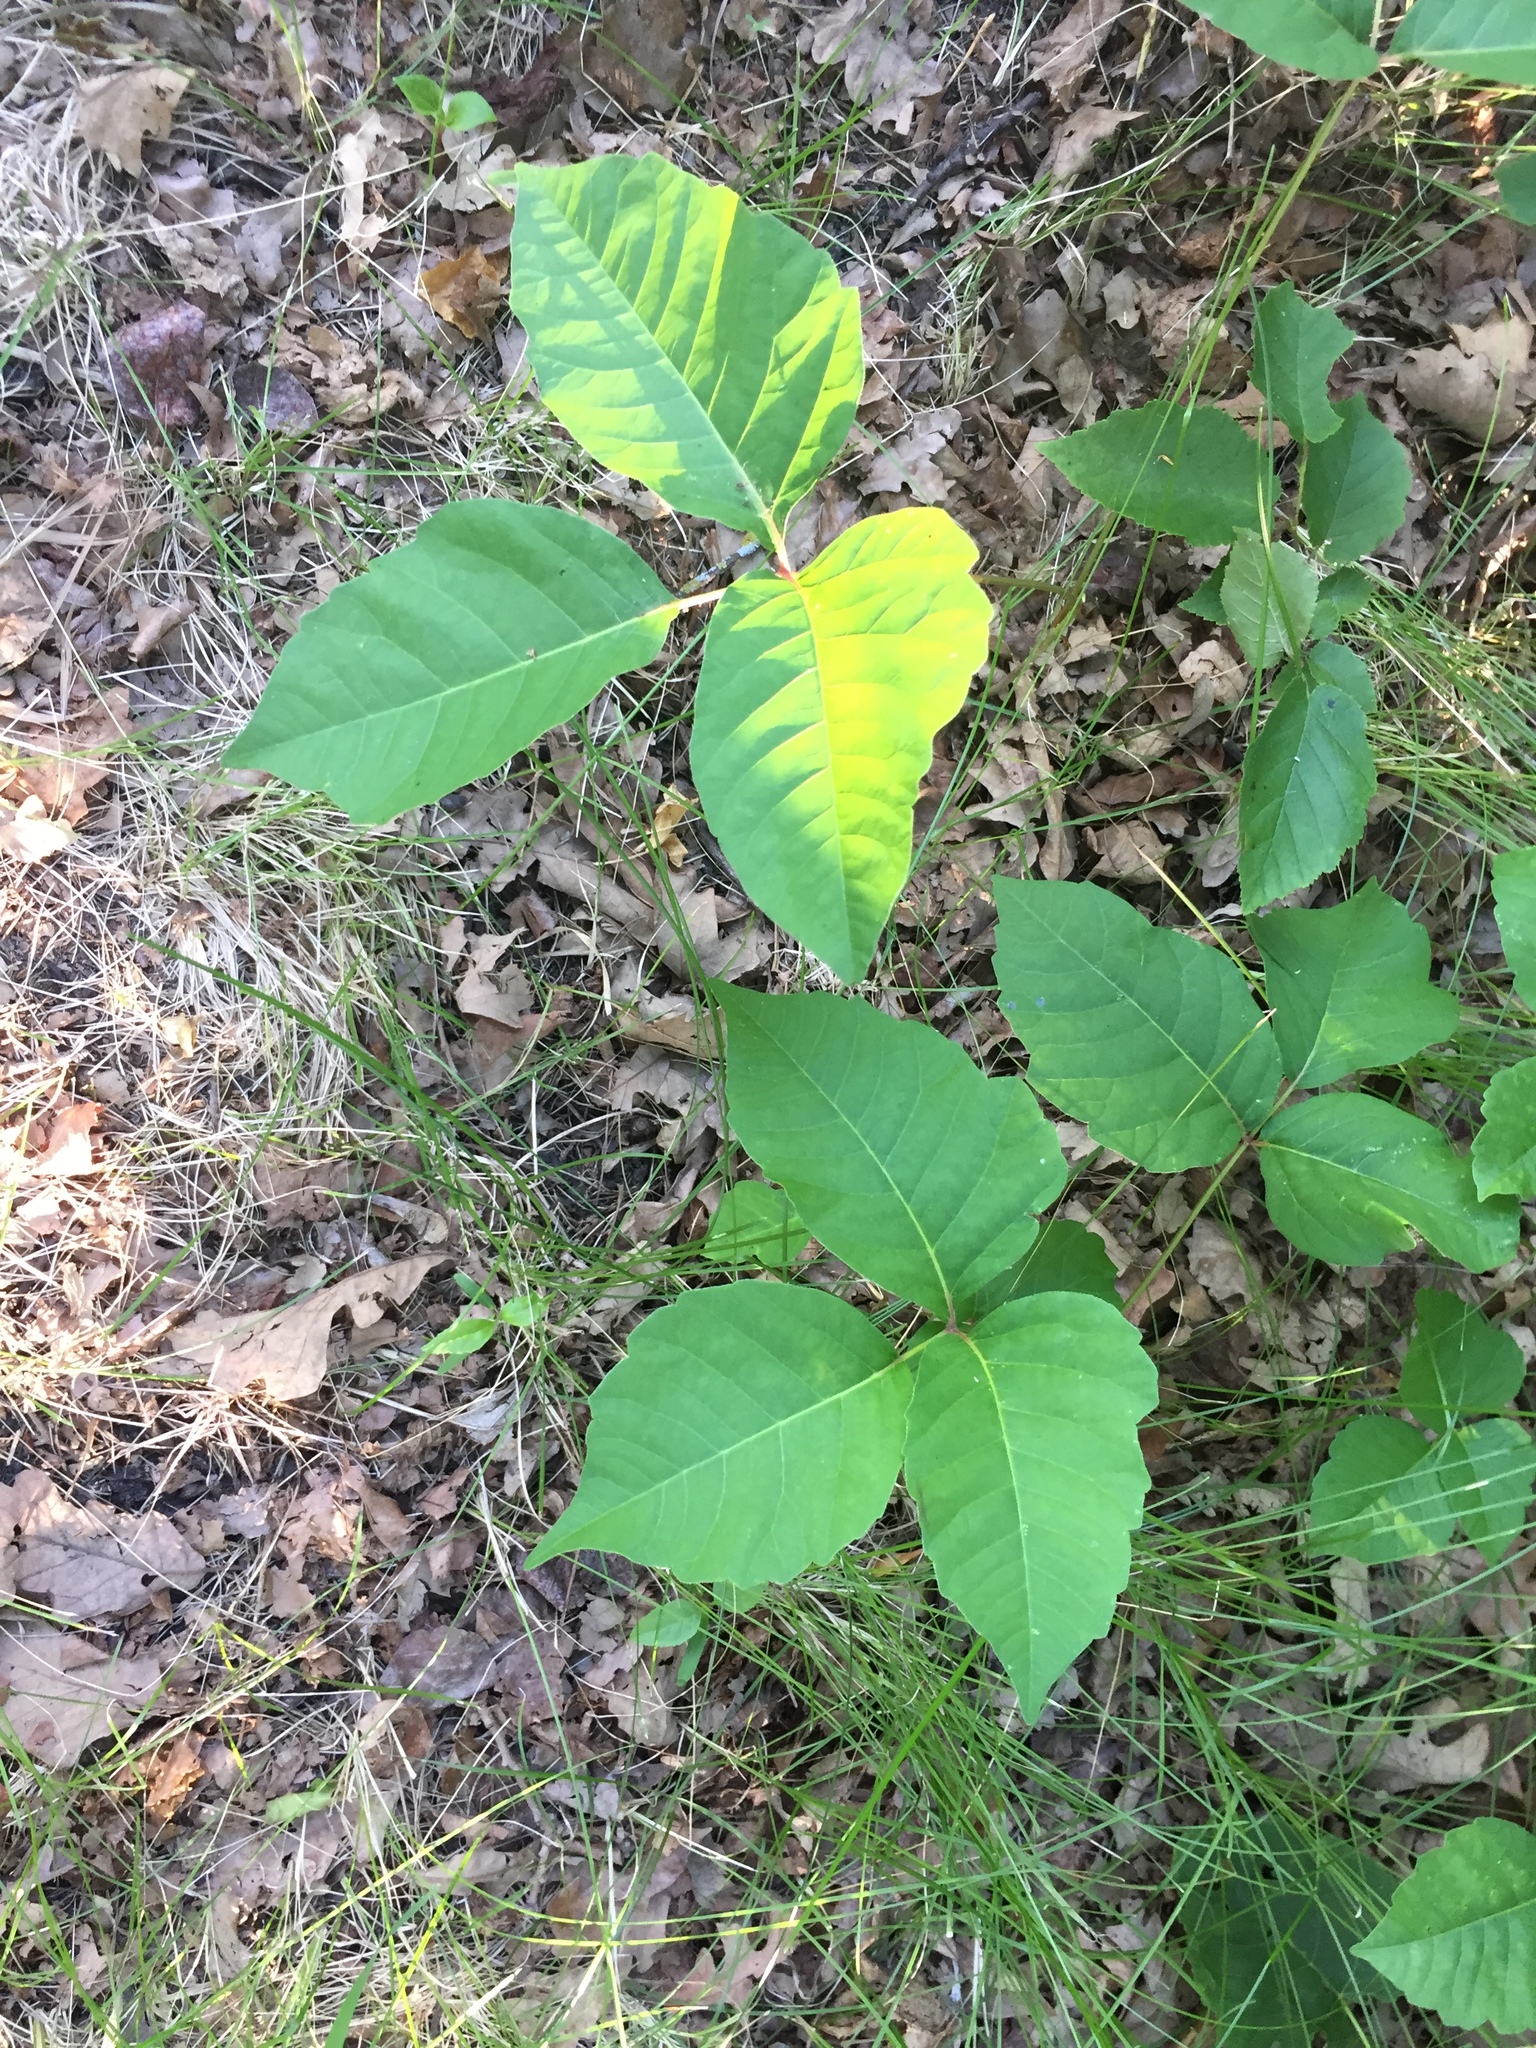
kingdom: Plantae
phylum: Tracheophyta
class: Magnoliopsida
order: Sapindales
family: Anacardiaceae
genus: Toxicodendron
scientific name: Toxicodendron rydbergii
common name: Rydberg's poison-ivy
